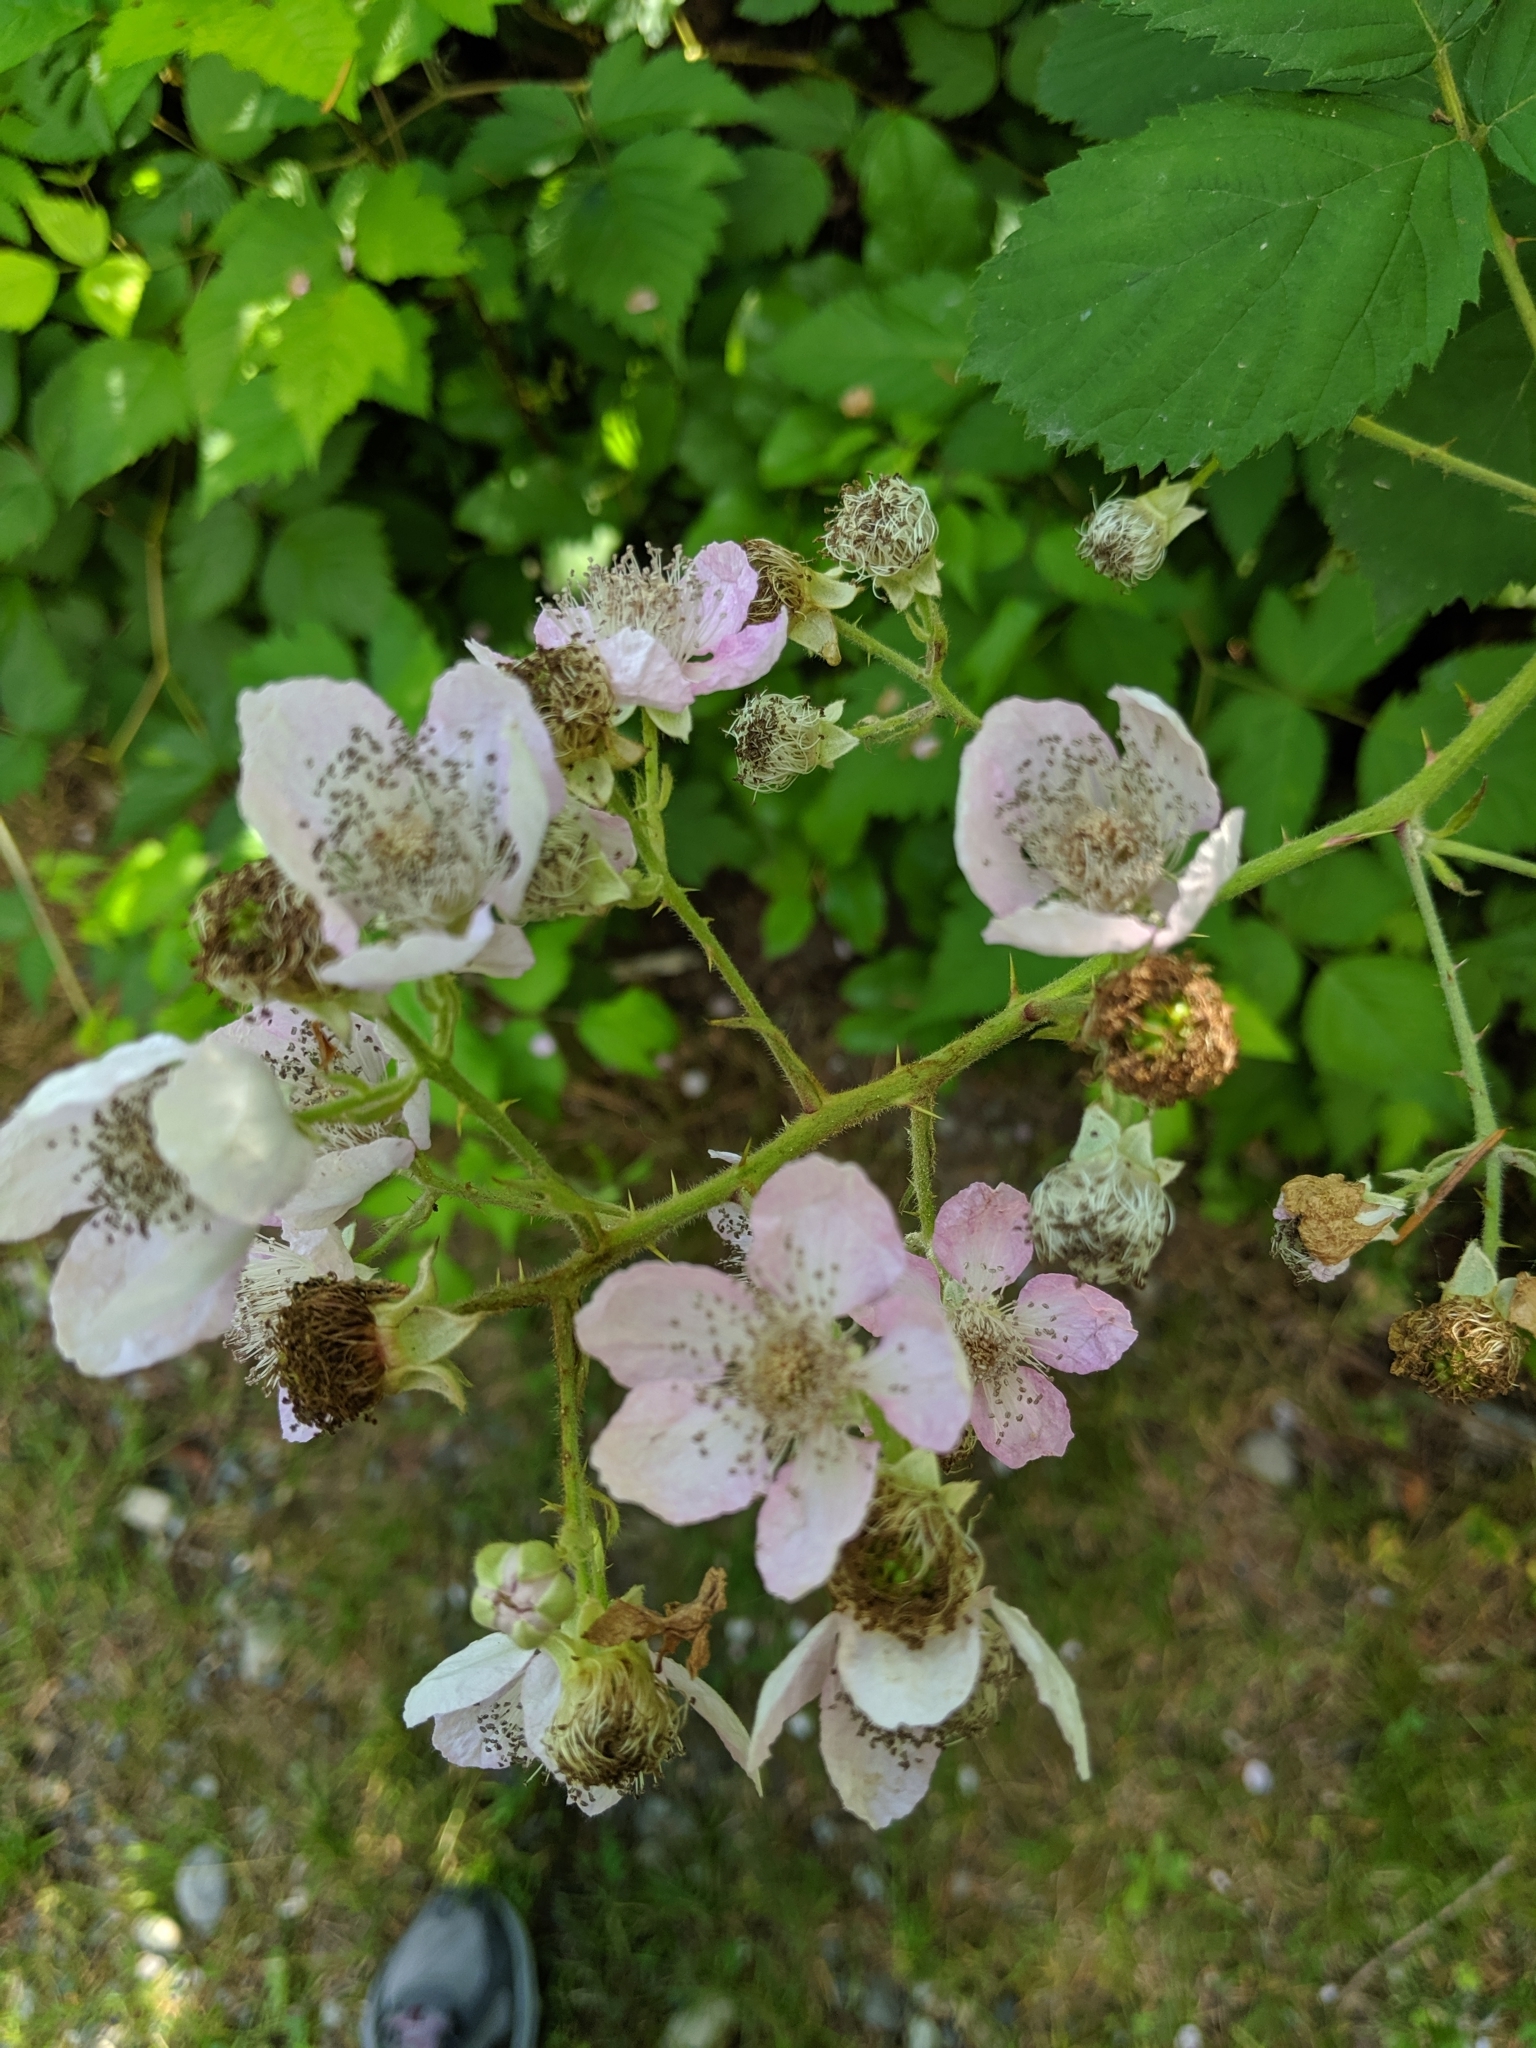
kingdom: Plantae
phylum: Tracheophyta
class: Magnoliopsida
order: Rosales
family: Rosaceae
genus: Rubus
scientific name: Rubus bifrons
